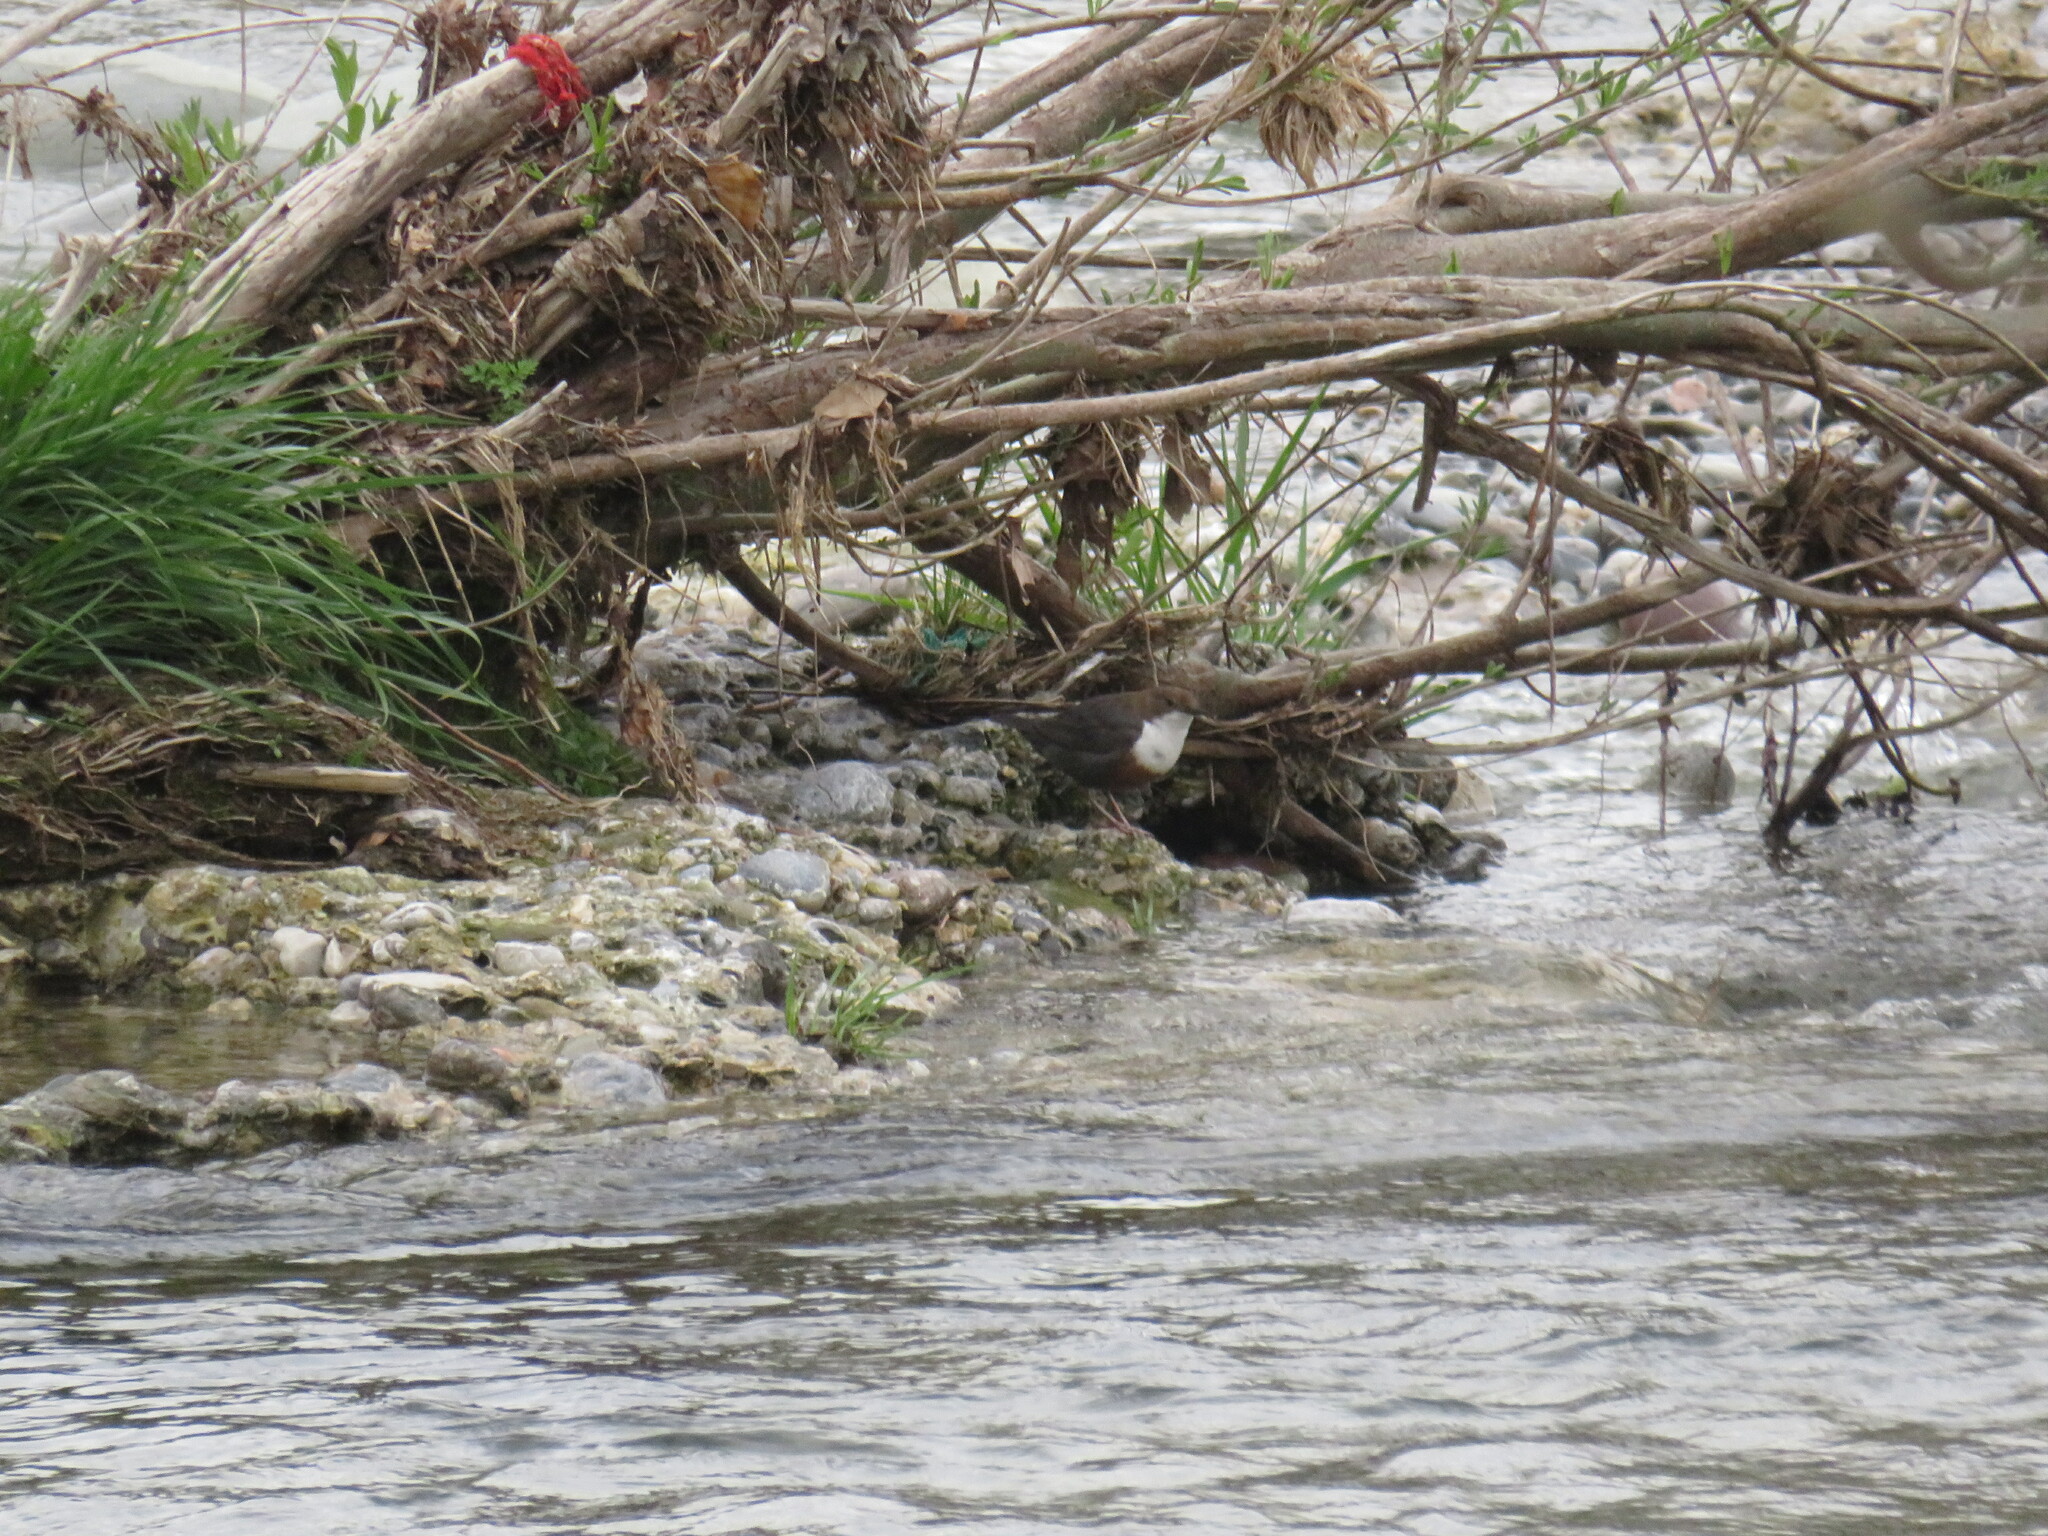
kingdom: Animalia
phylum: Chordata
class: Aves
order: Passeriformes
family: Cinclidae
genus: Cinclus
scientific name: Cinclus cinclus
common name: White-throated dipper
